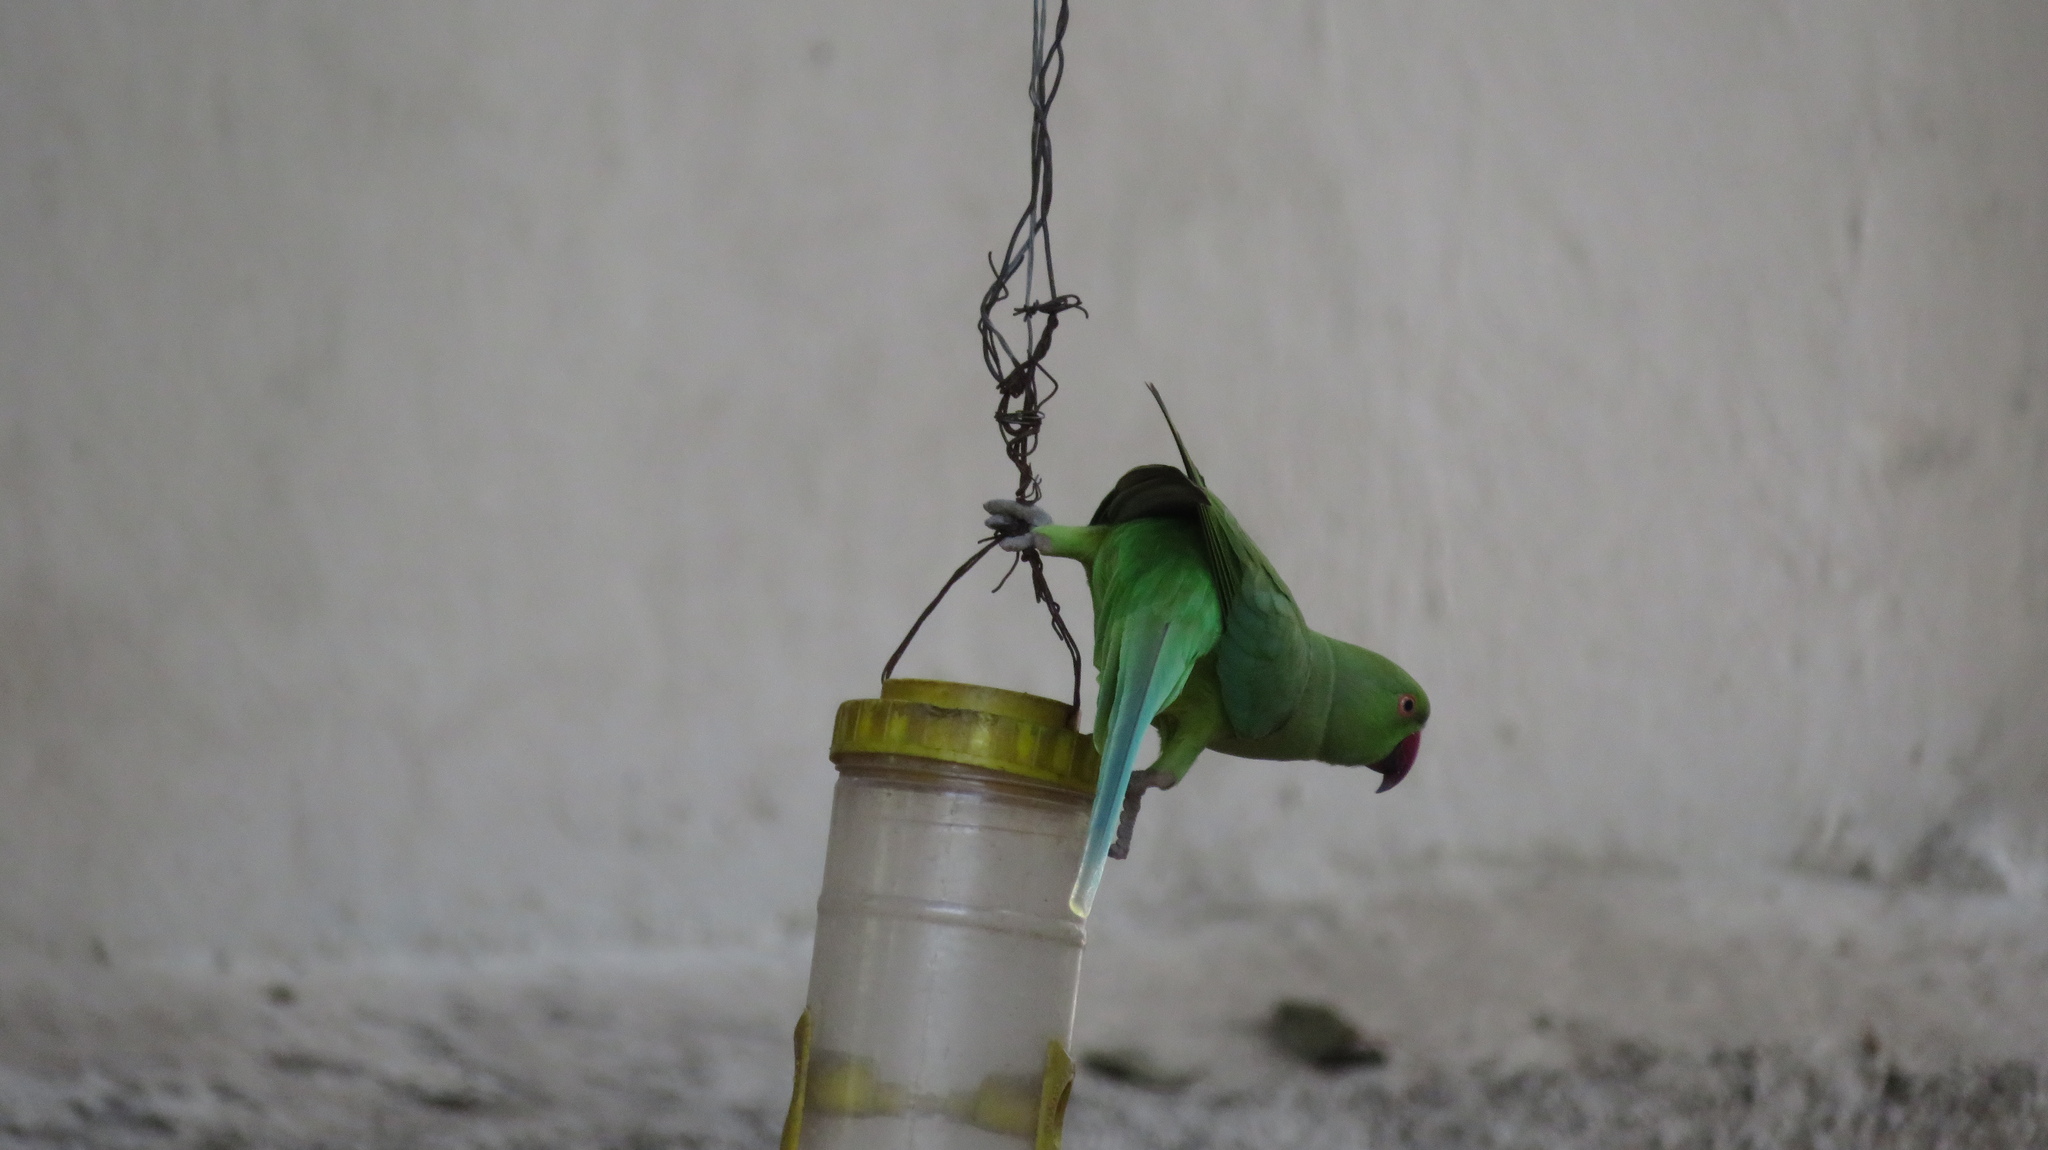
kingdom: Animalia
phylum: Chordata
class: Aves
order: Psittaciformes
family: Psittacidae
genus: Psittacula
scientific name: Psittacula krameri
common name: Rose-ringed parakeet
